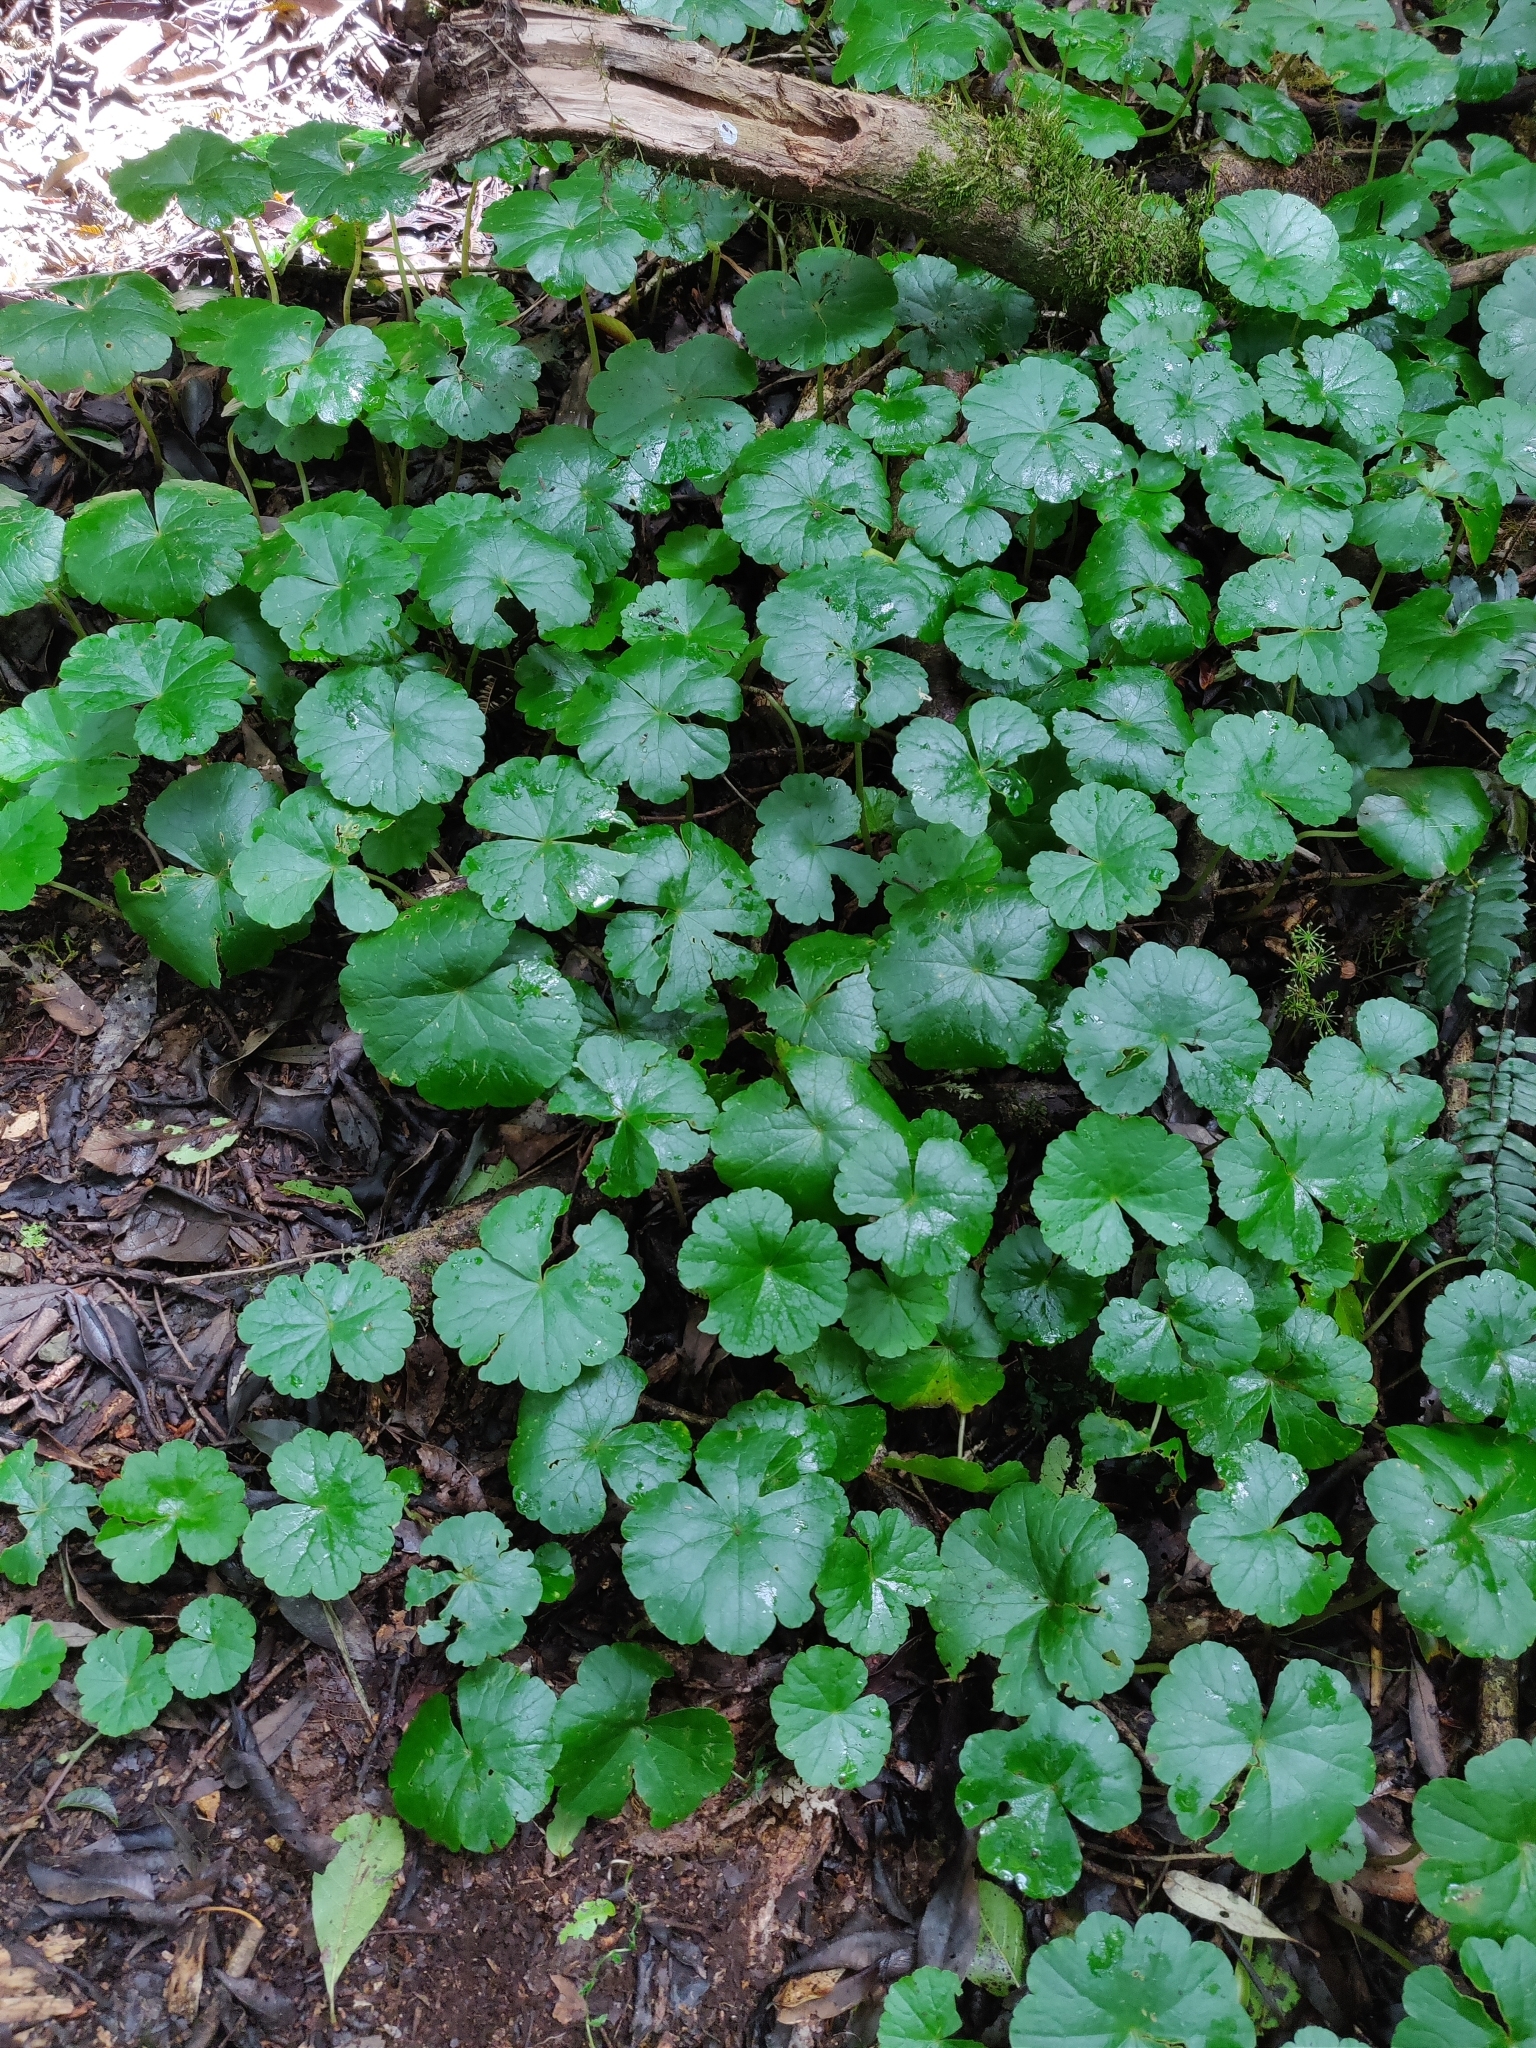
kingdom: Plantae
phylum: Tracheophyta
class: Magnoliopsida
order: Apiales
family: Araliaceae
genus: Hydrocotyle
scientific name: Hydrocotyle pedicellosa
